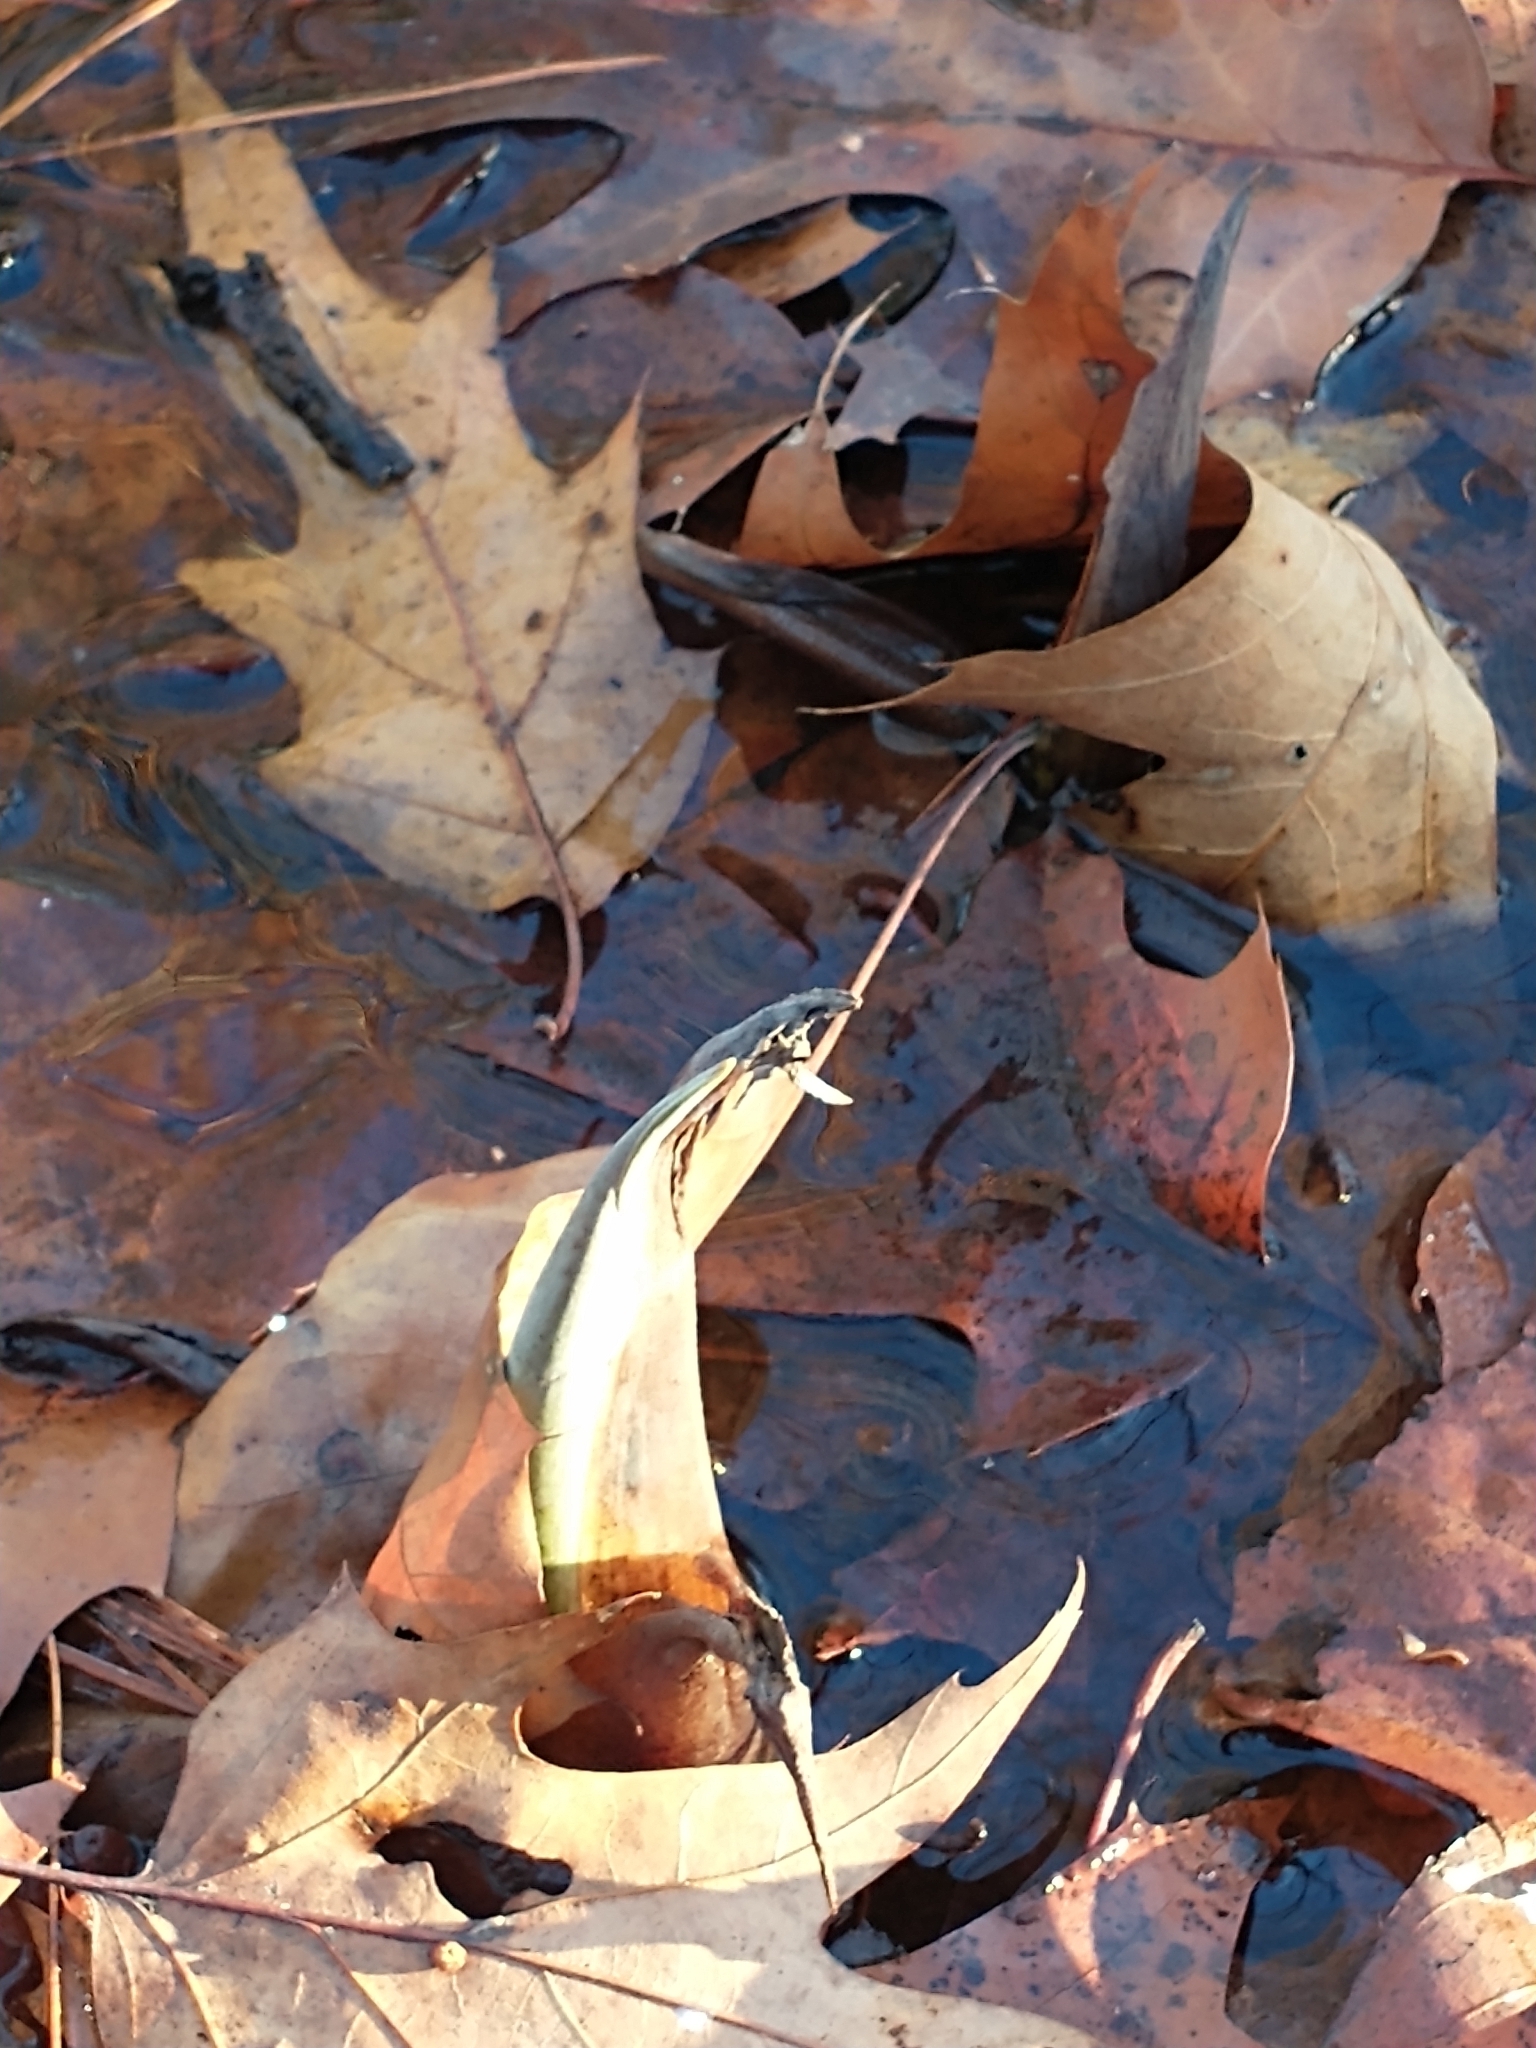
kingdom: Plantae
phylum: Tracheophyta
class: Liliopsida
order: Alismatales
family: Araceae
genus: Symplocarpus
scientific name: Symplocarpus foetidus
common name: Eastern skunk cabbage
